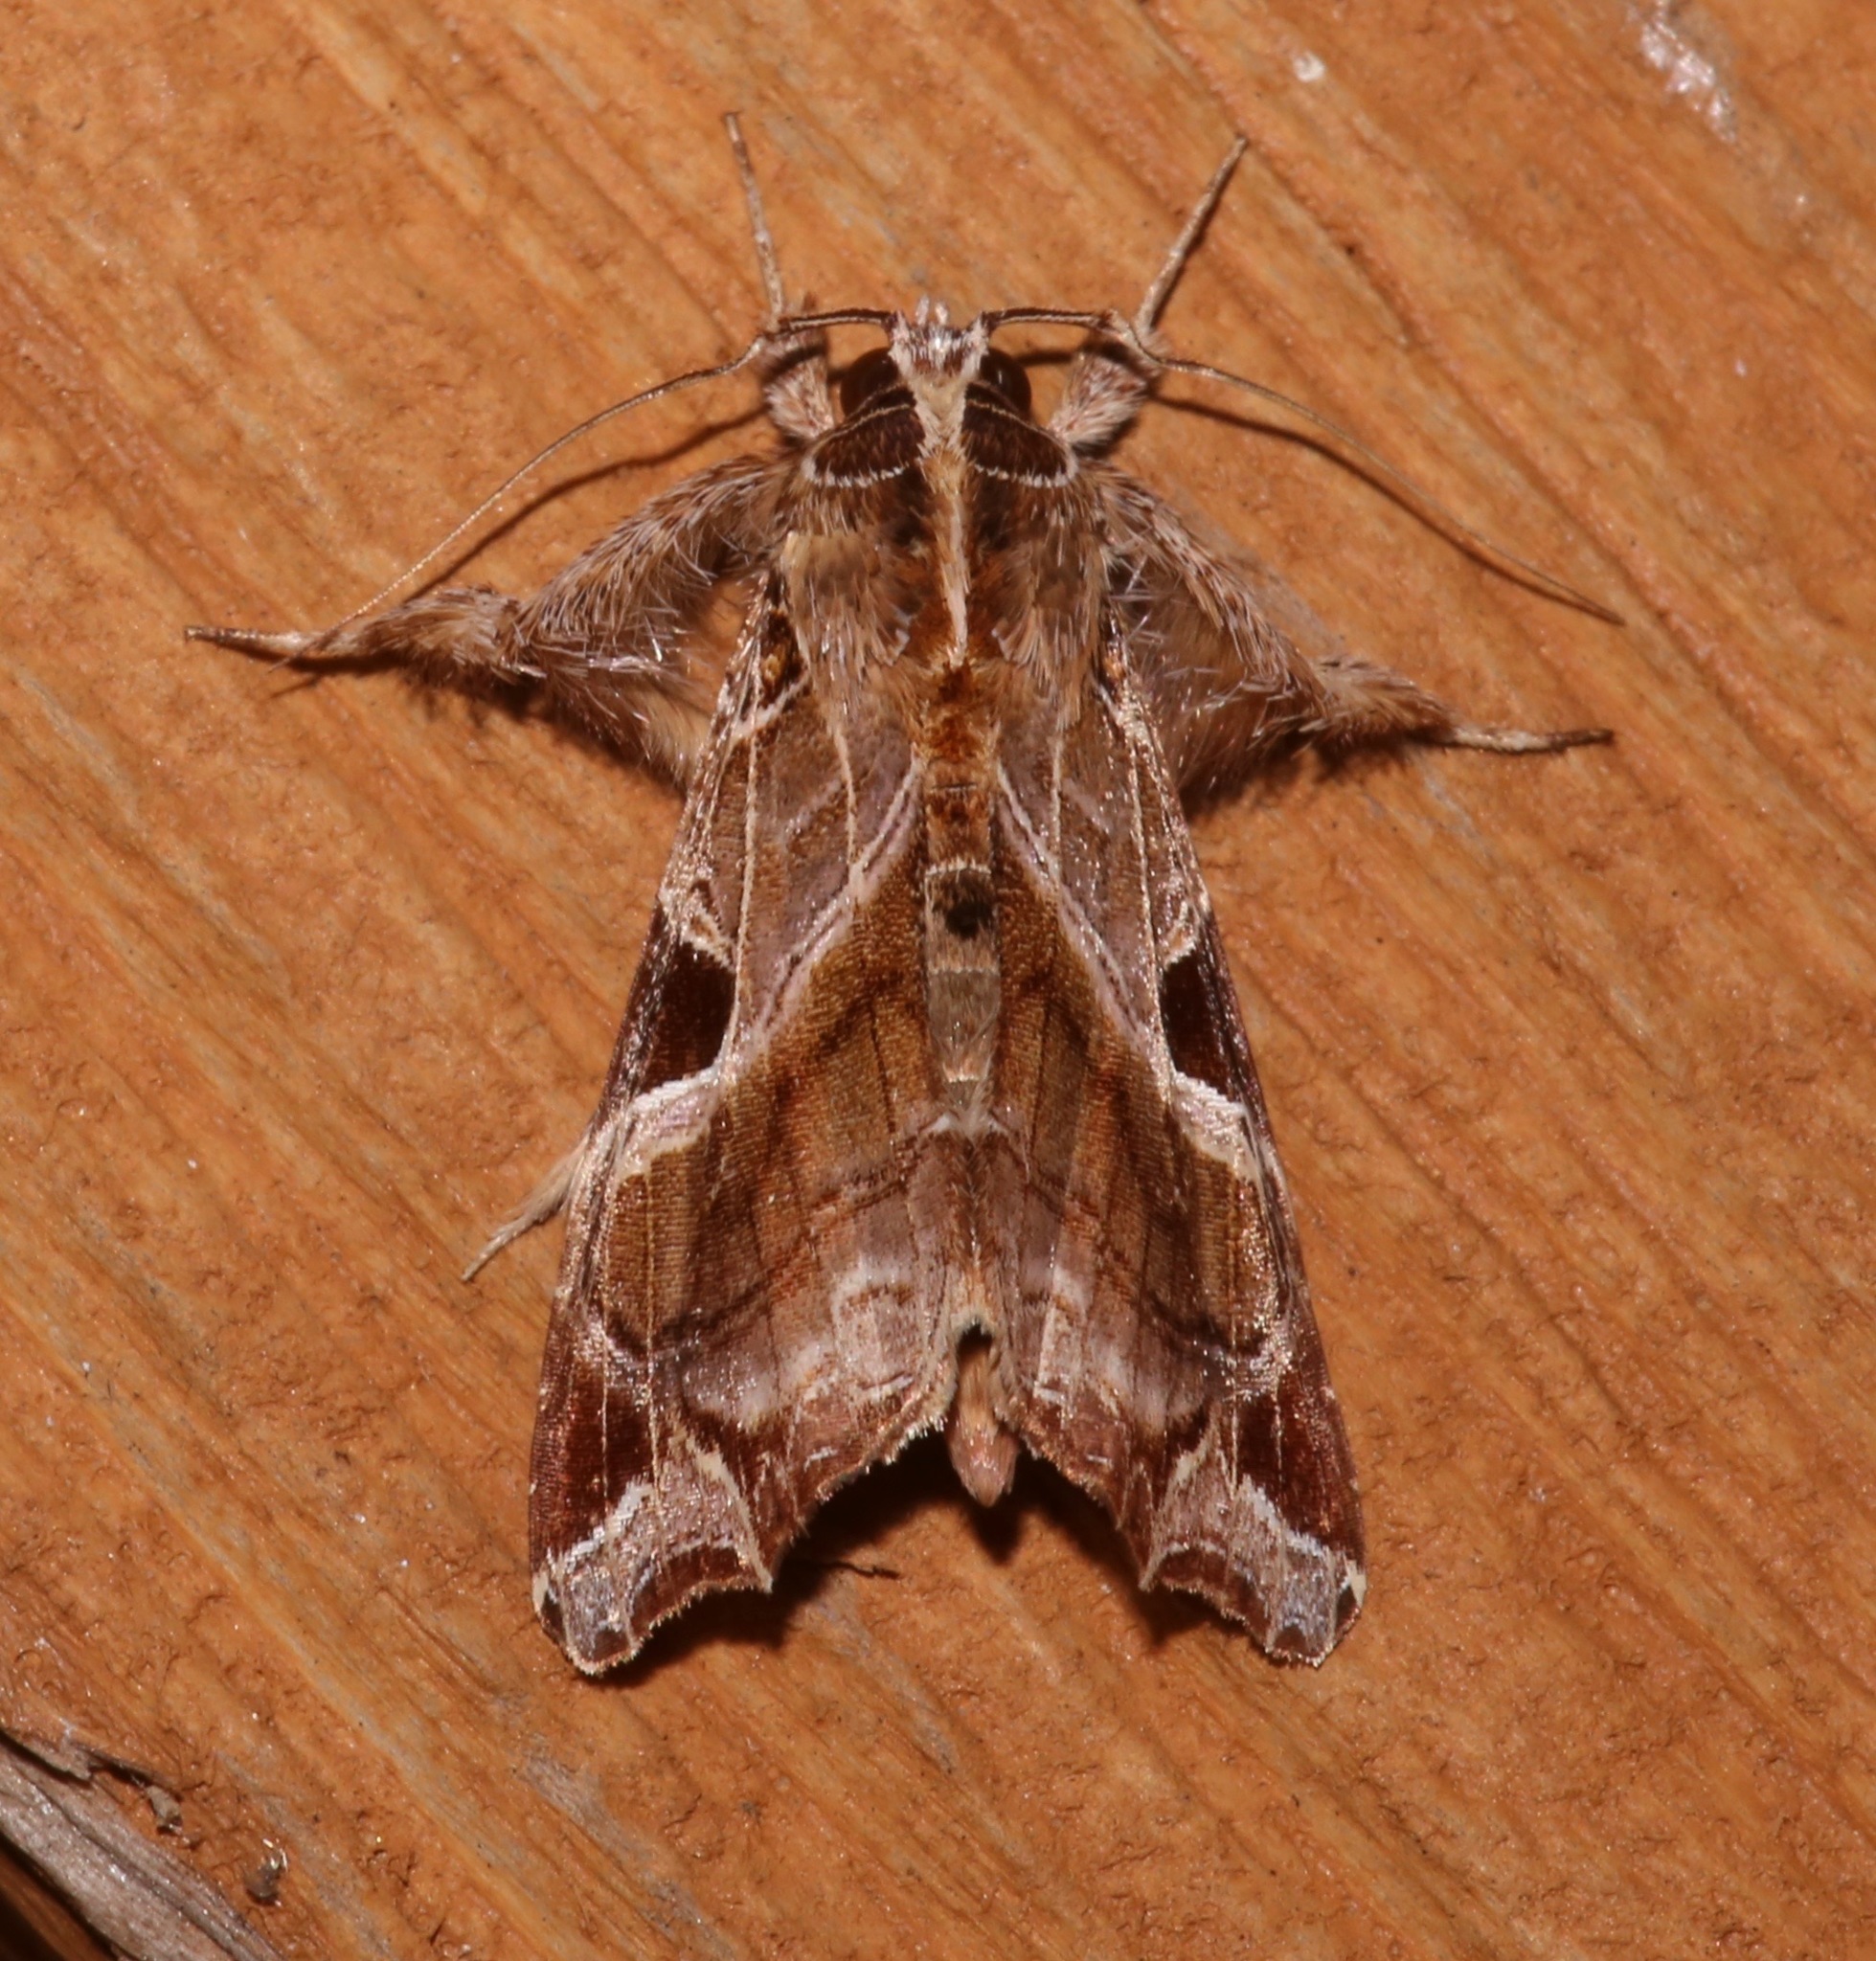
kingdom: Animalia
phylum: Arthropoda
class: Insecta
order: Lepidoptera
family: Noctuidae
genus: Callopistria
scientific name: Callopistria floridensis
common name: Florida fern moth
